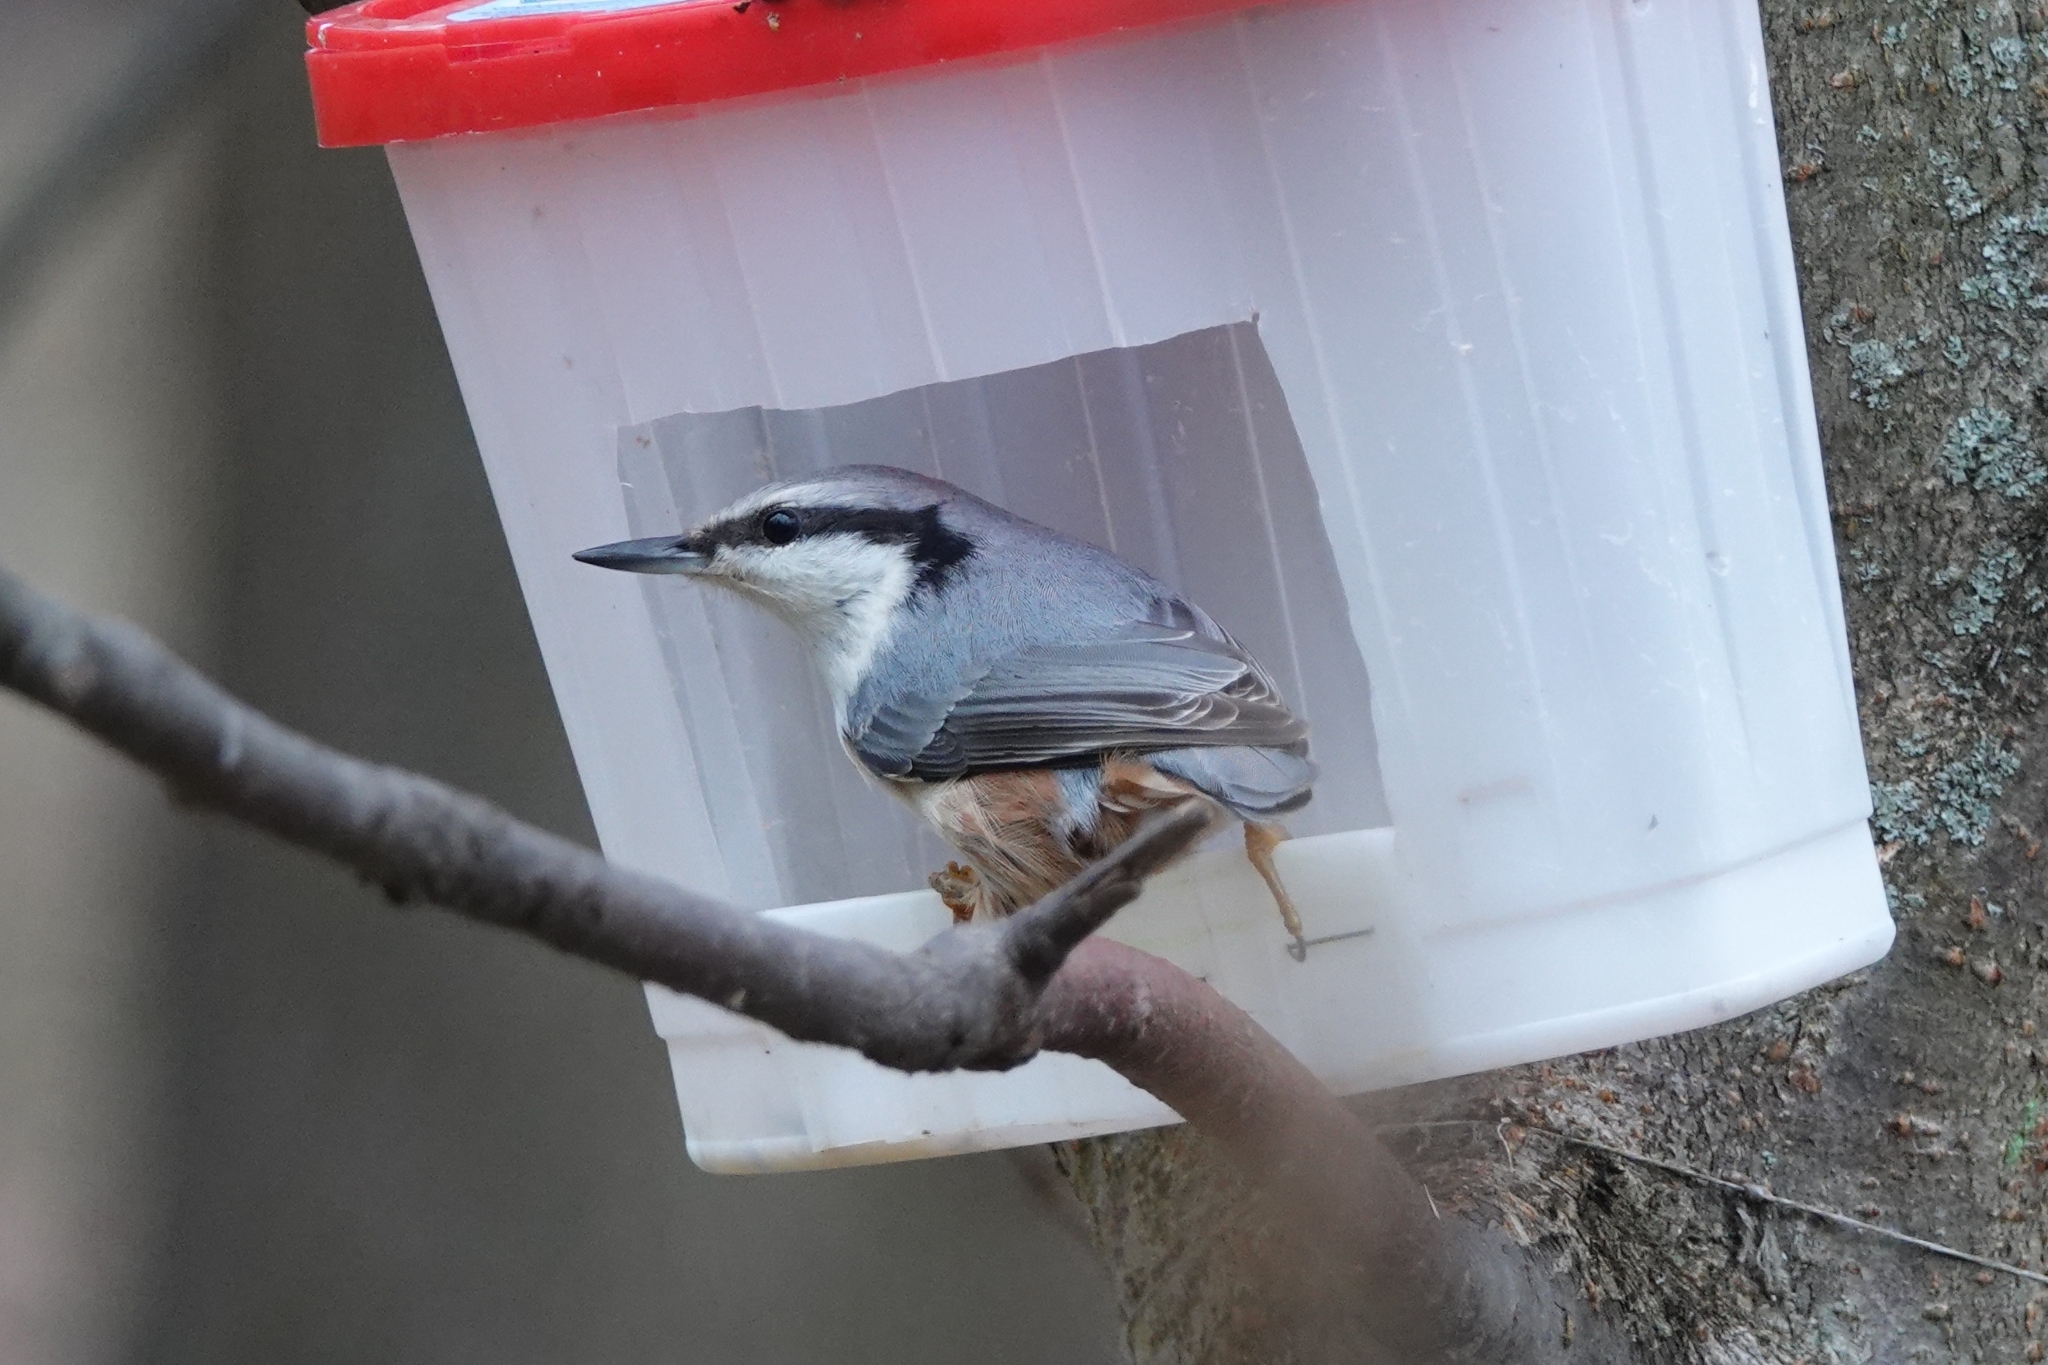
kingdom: Animalia
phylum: Chordata
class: Aves
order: Passeriformes
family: Sittidae
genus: Sitta
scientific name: Sitta europaea
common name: Eurasian nuthatch
